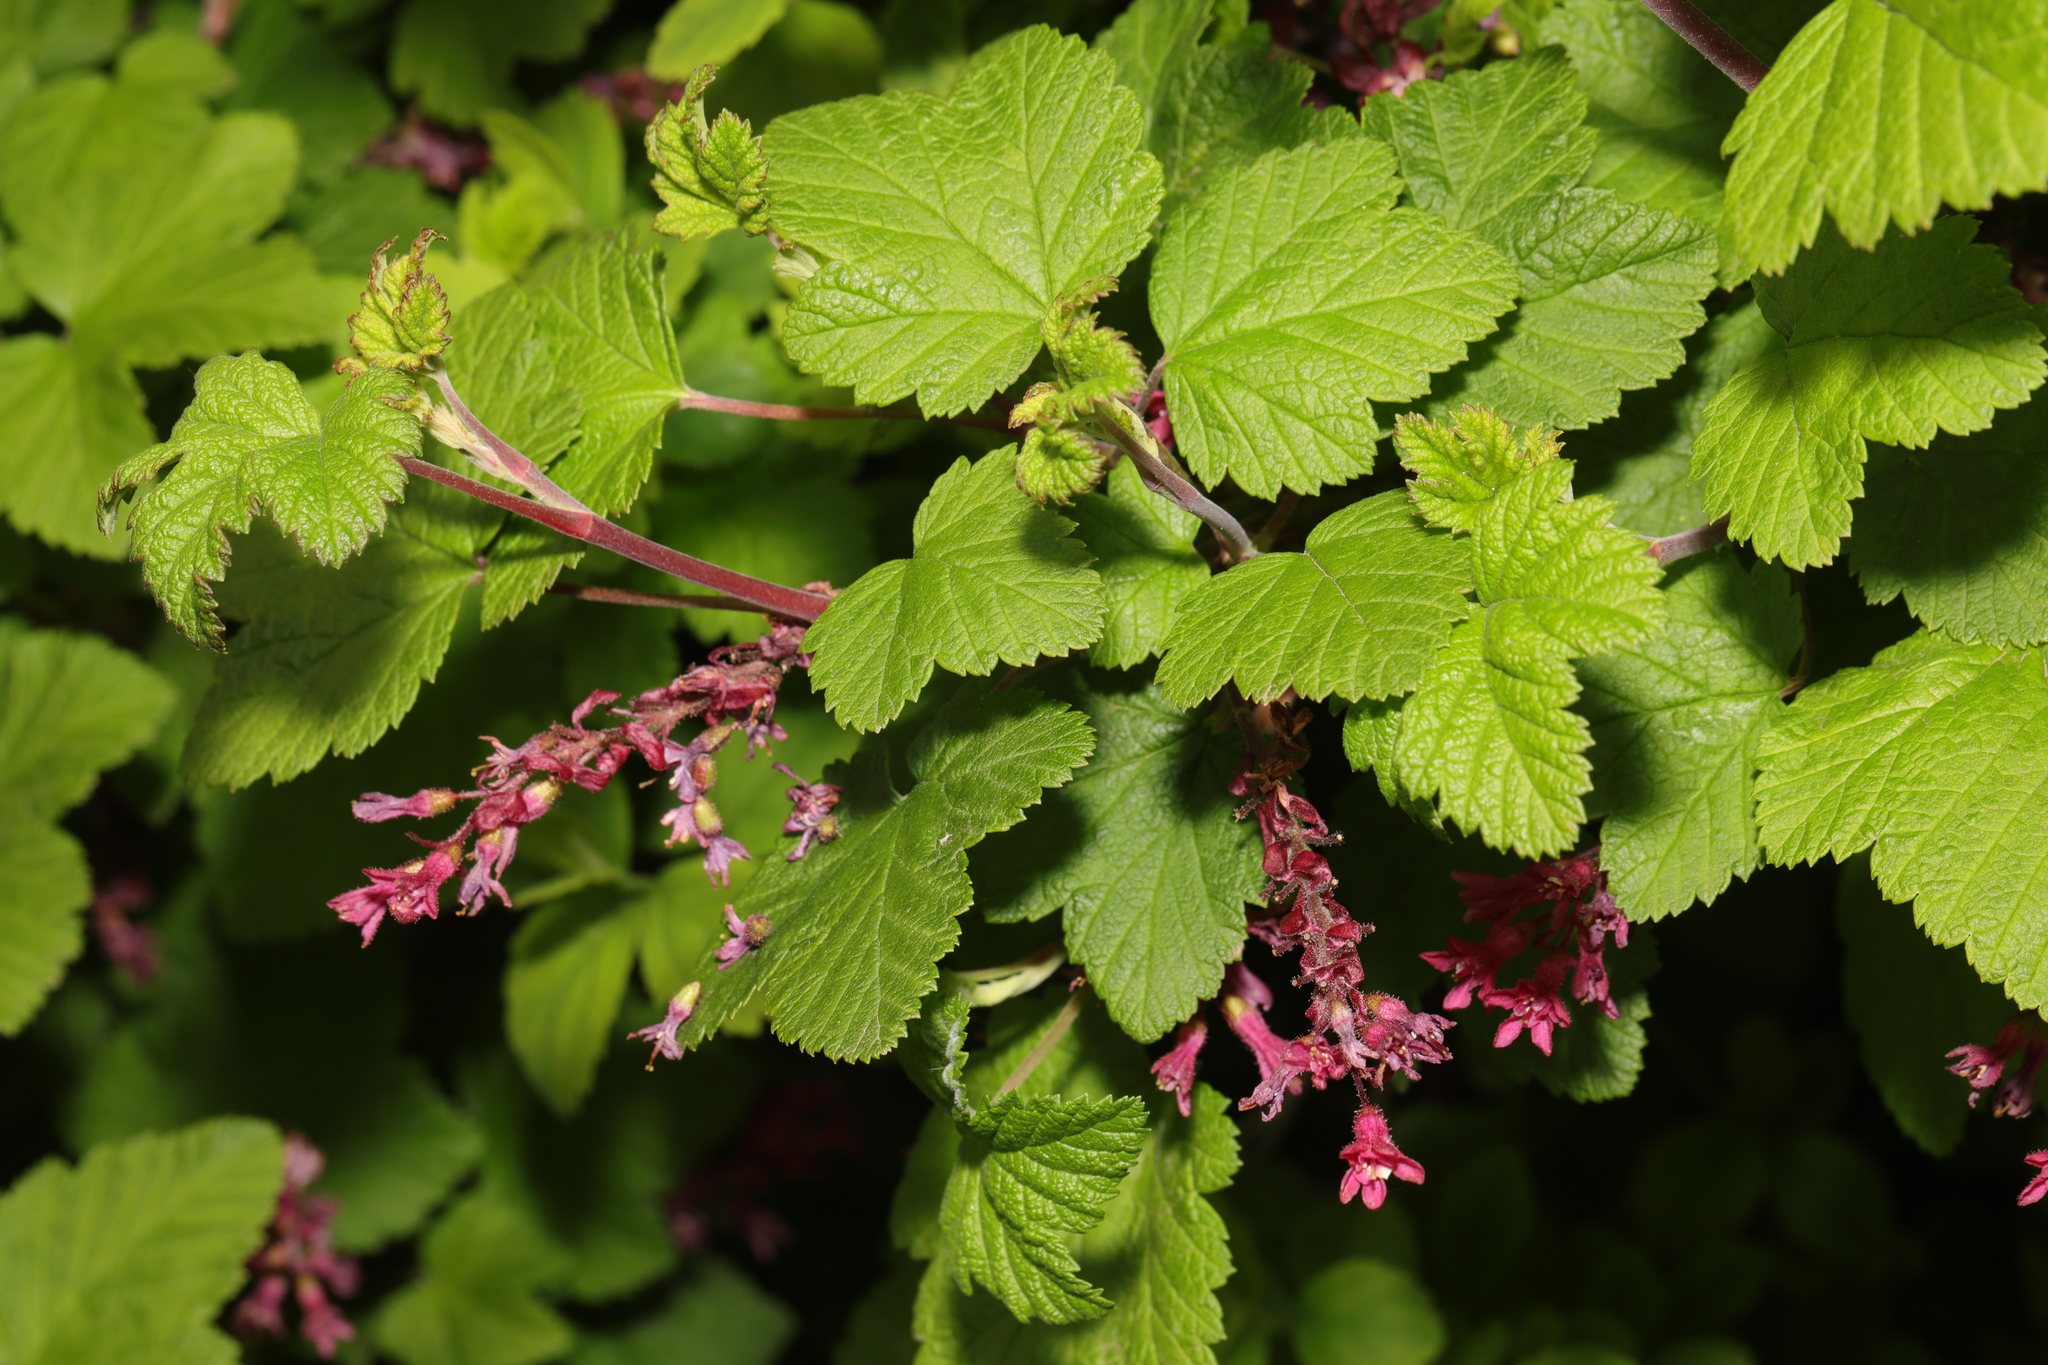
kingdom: Plantae
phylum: Tracheophyta
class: Magnoliopsida
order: Saxifragales
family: Grossulariaceae
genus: Ribes
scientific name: Ribes sanguineum
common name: Flowering currant
